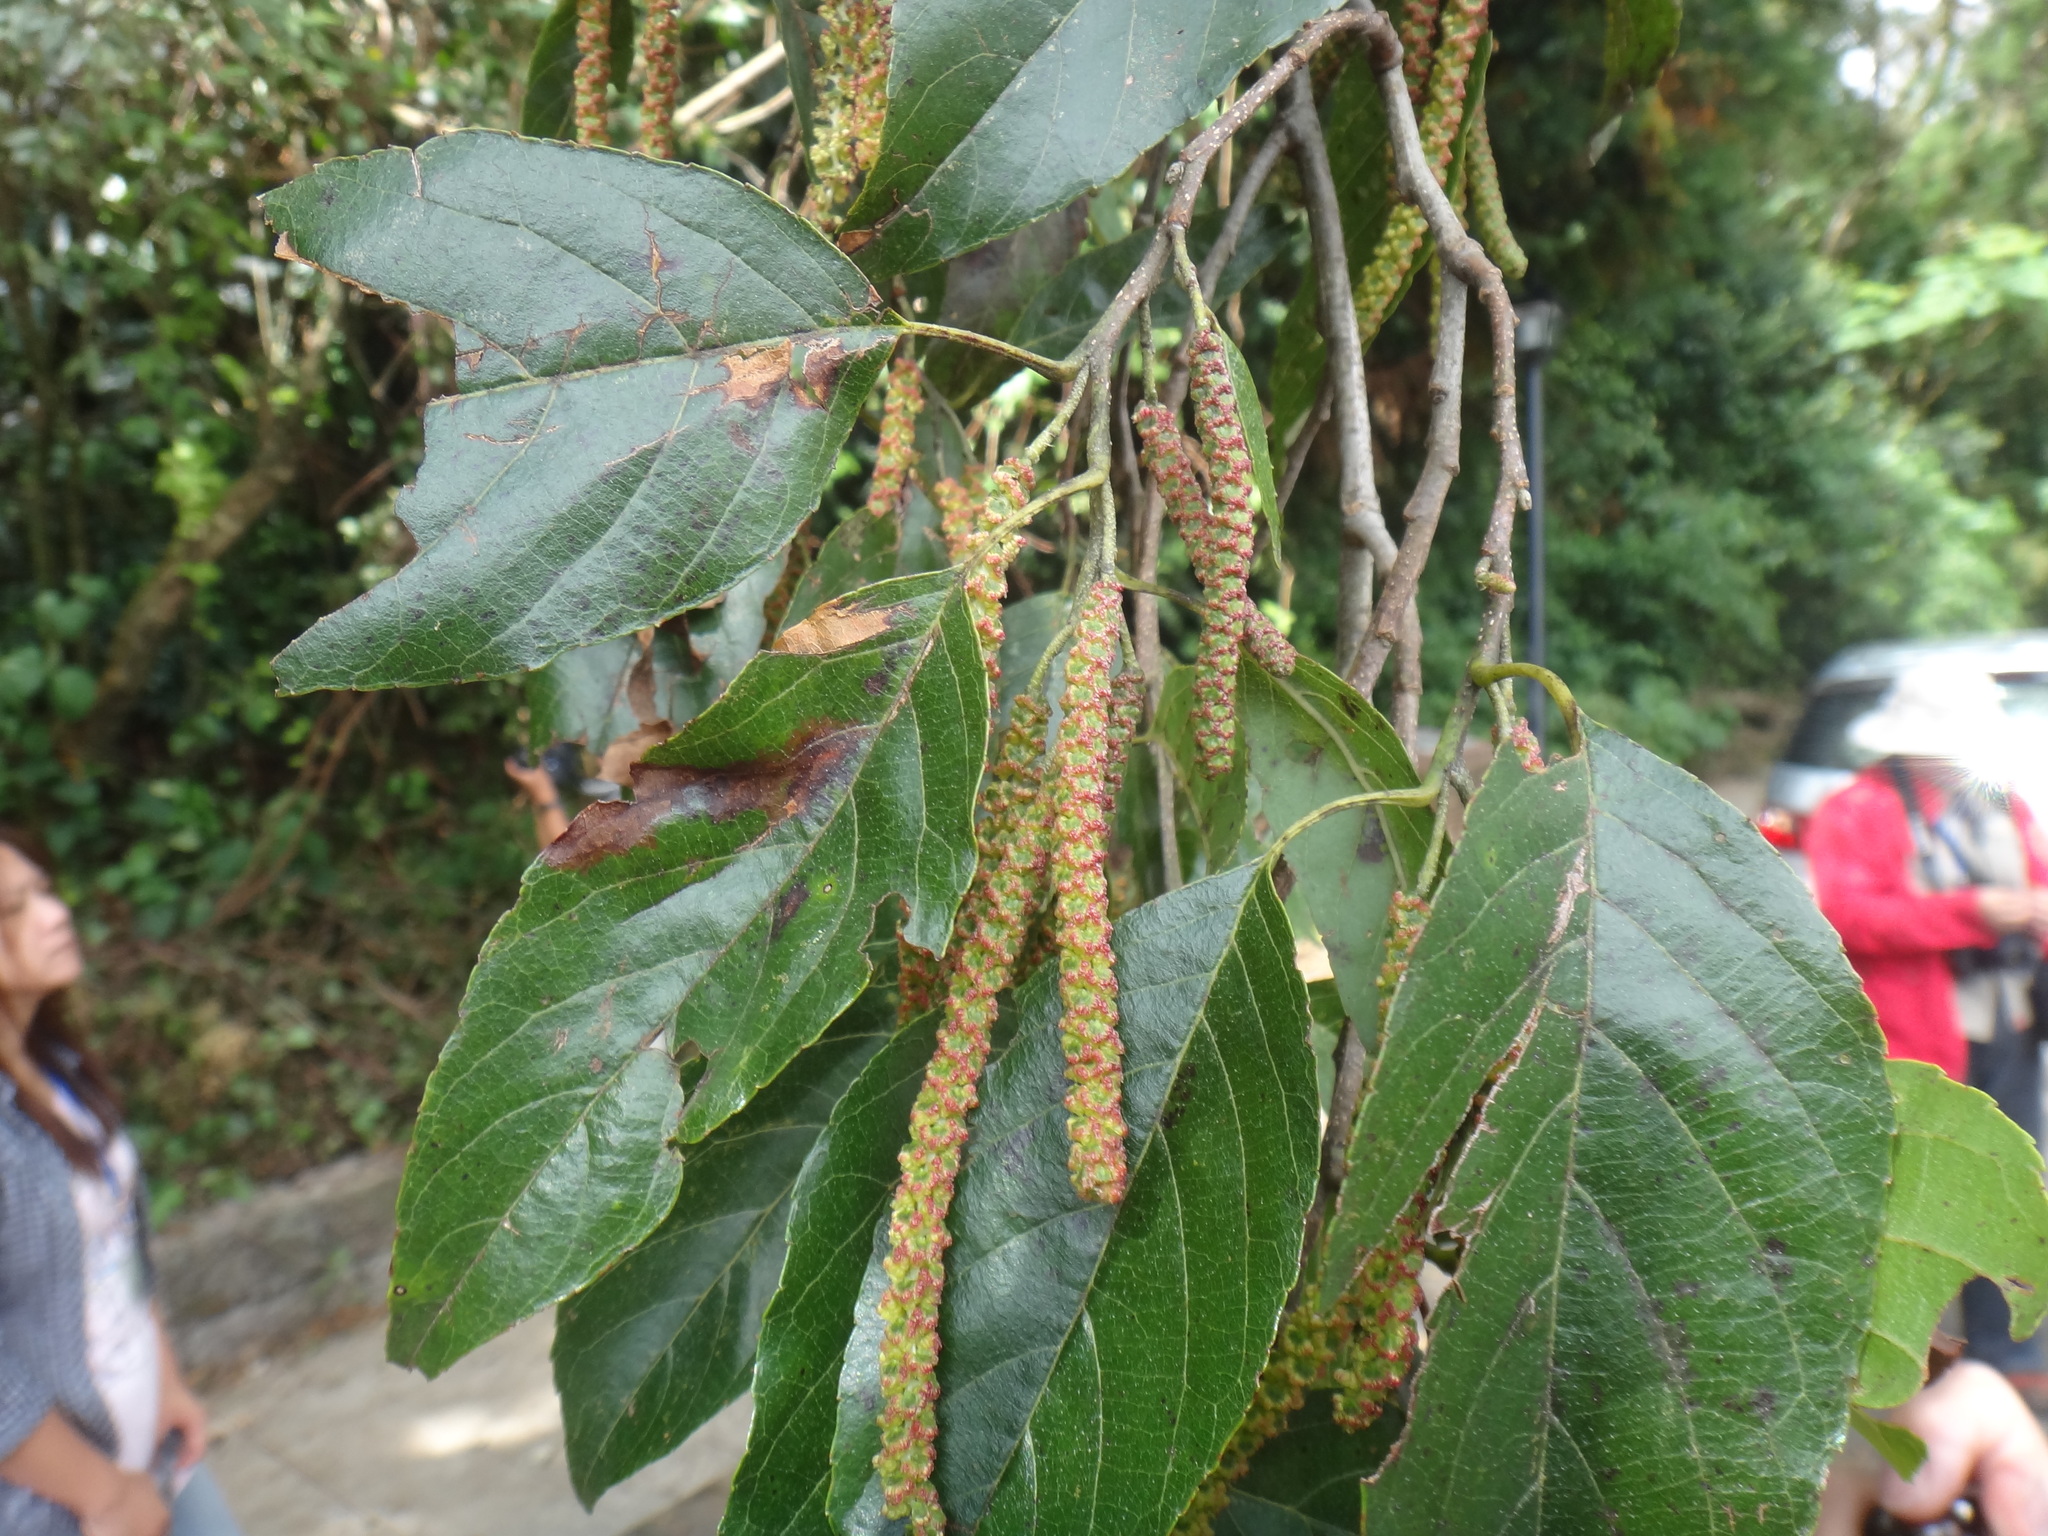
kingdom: Plantae
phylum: Tracheophyta
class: Magnoliopsida
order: Fagales
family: Betulaceae
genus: Alnus
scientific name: Alnus formosana
